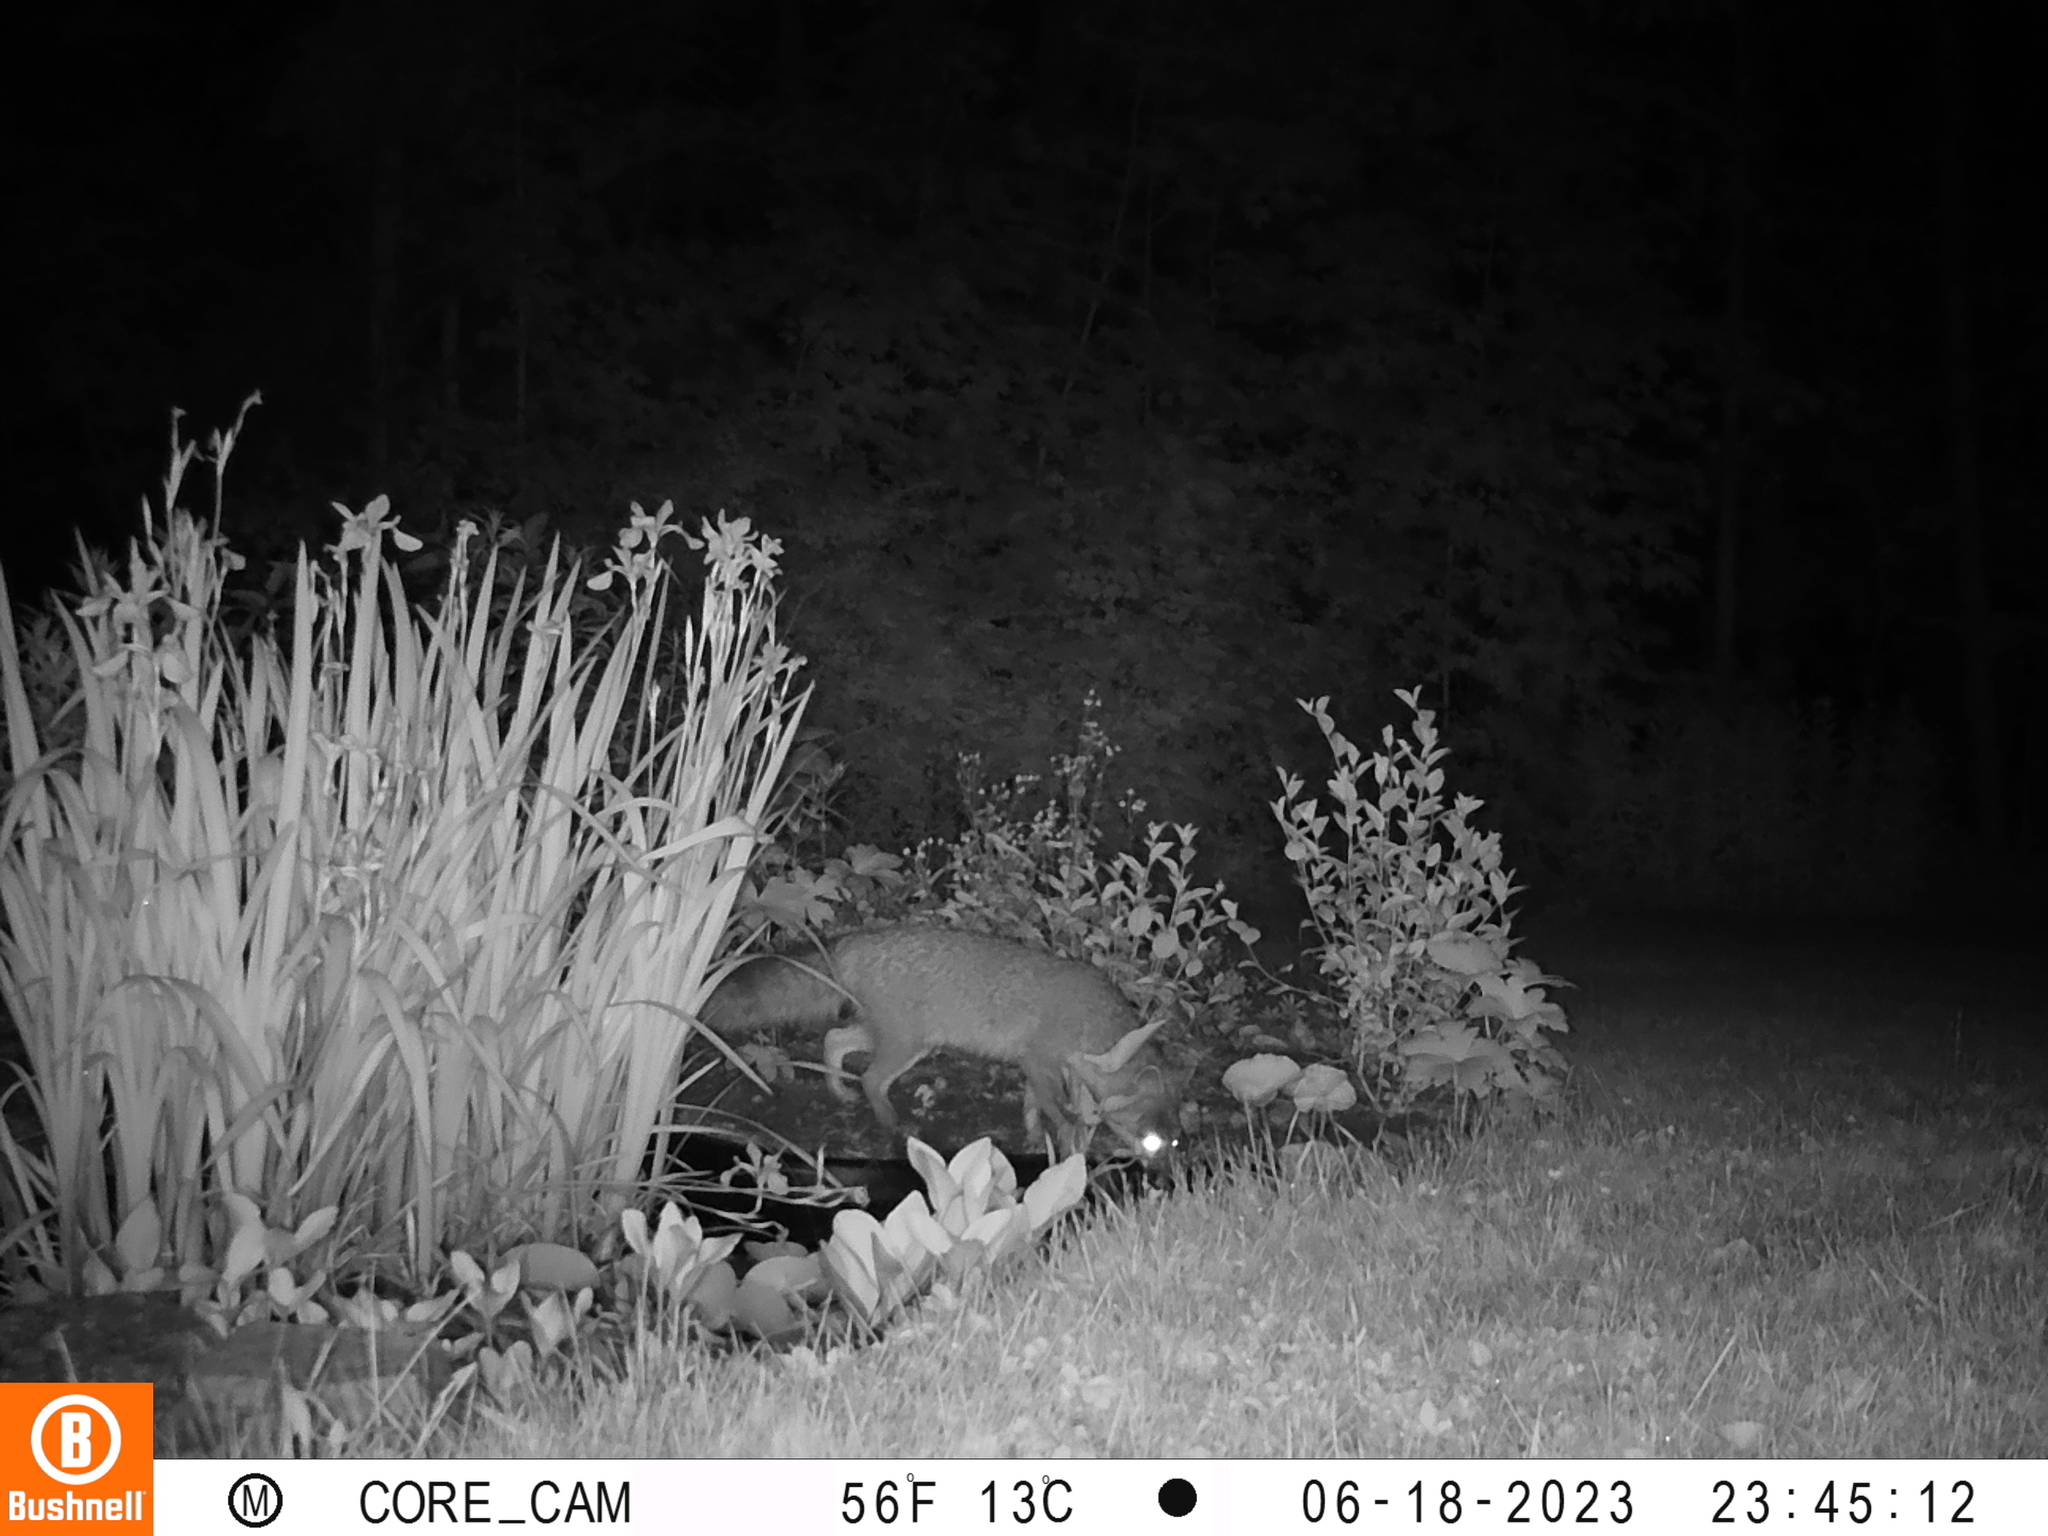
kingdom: Animalia
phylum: Chordata
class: Mammalia
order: Carnivora
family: Canidae
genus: Urocyon
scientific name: Urocyon cinereoargenteus
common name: Gray fox
